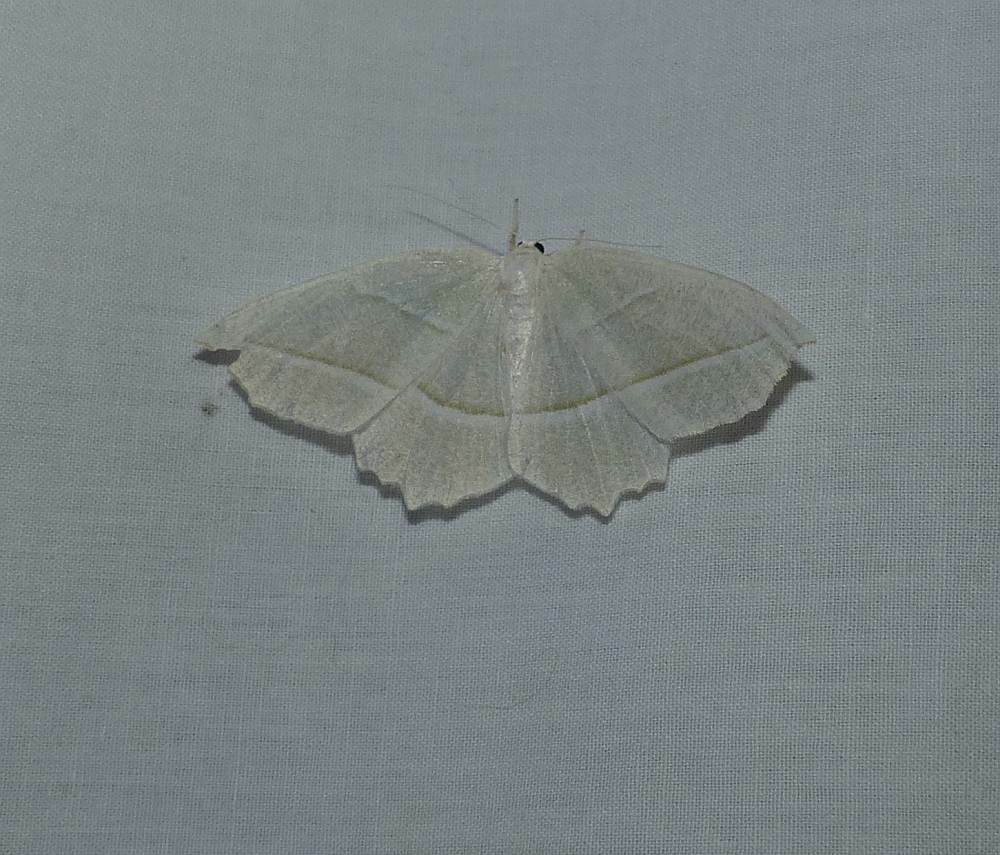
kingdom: Animalia
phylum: Arthropoda
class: Insecta
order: Lepidoptera
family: Geometridae
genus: Campaea
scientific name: Campaea perlata
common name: Fringed looper
